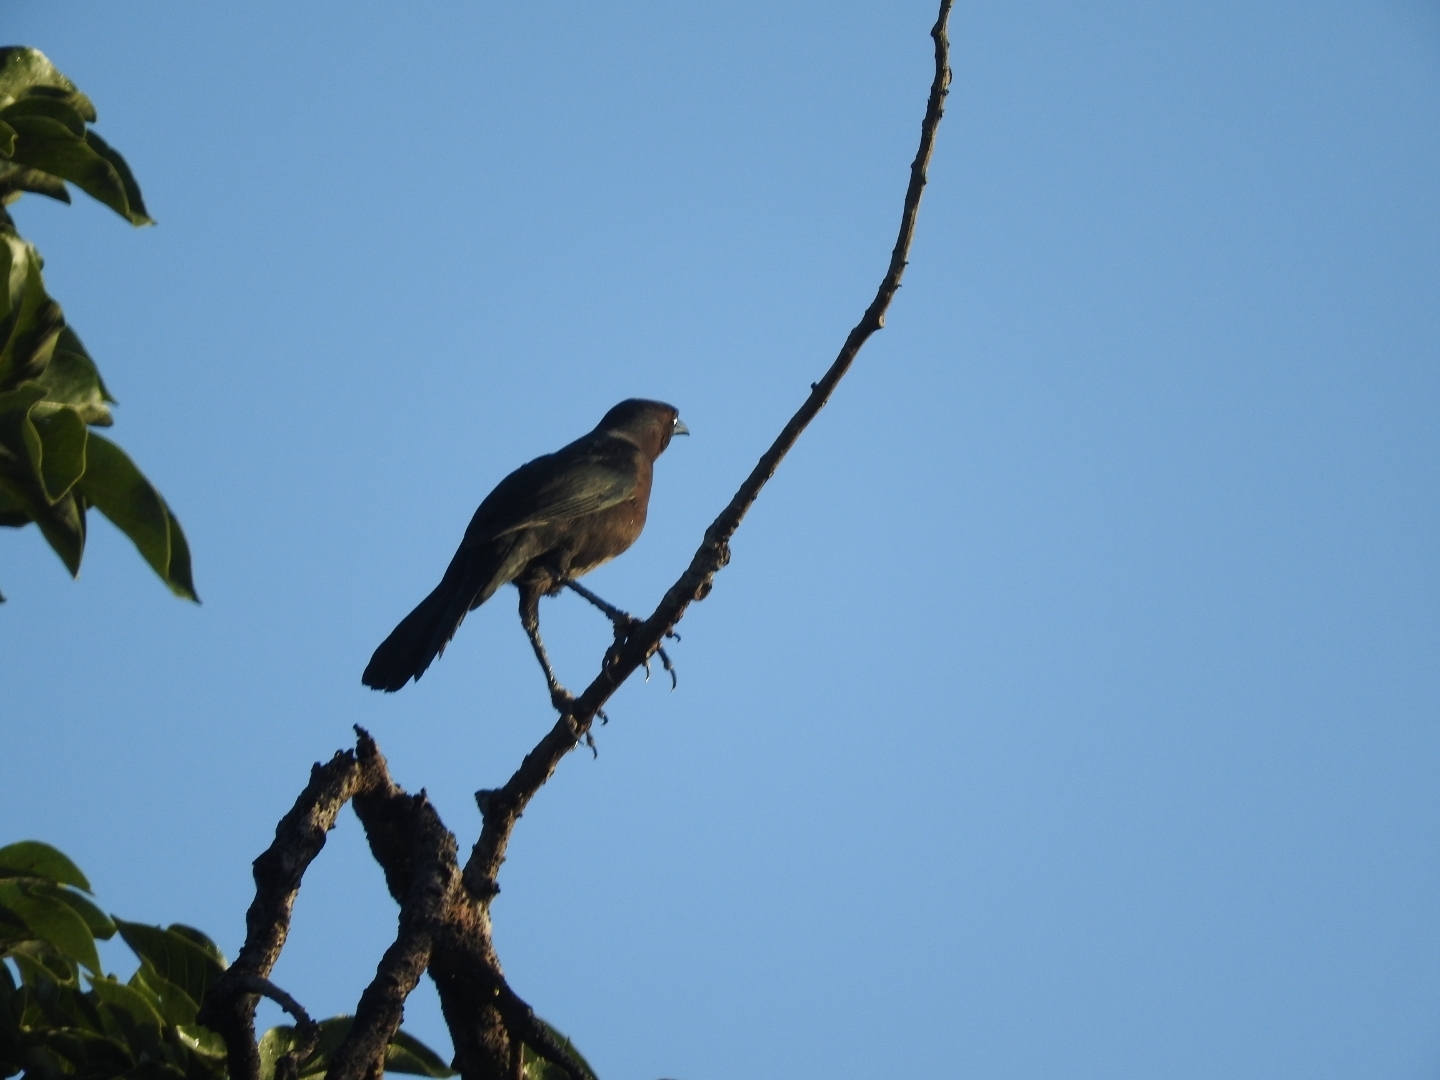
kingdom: Animalia
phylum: Chordata
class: Aves
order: Passeriformes
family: Icteridae
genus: Quiscalus
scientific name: Quiscalus mexicanus
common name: Great-tailed grackle
